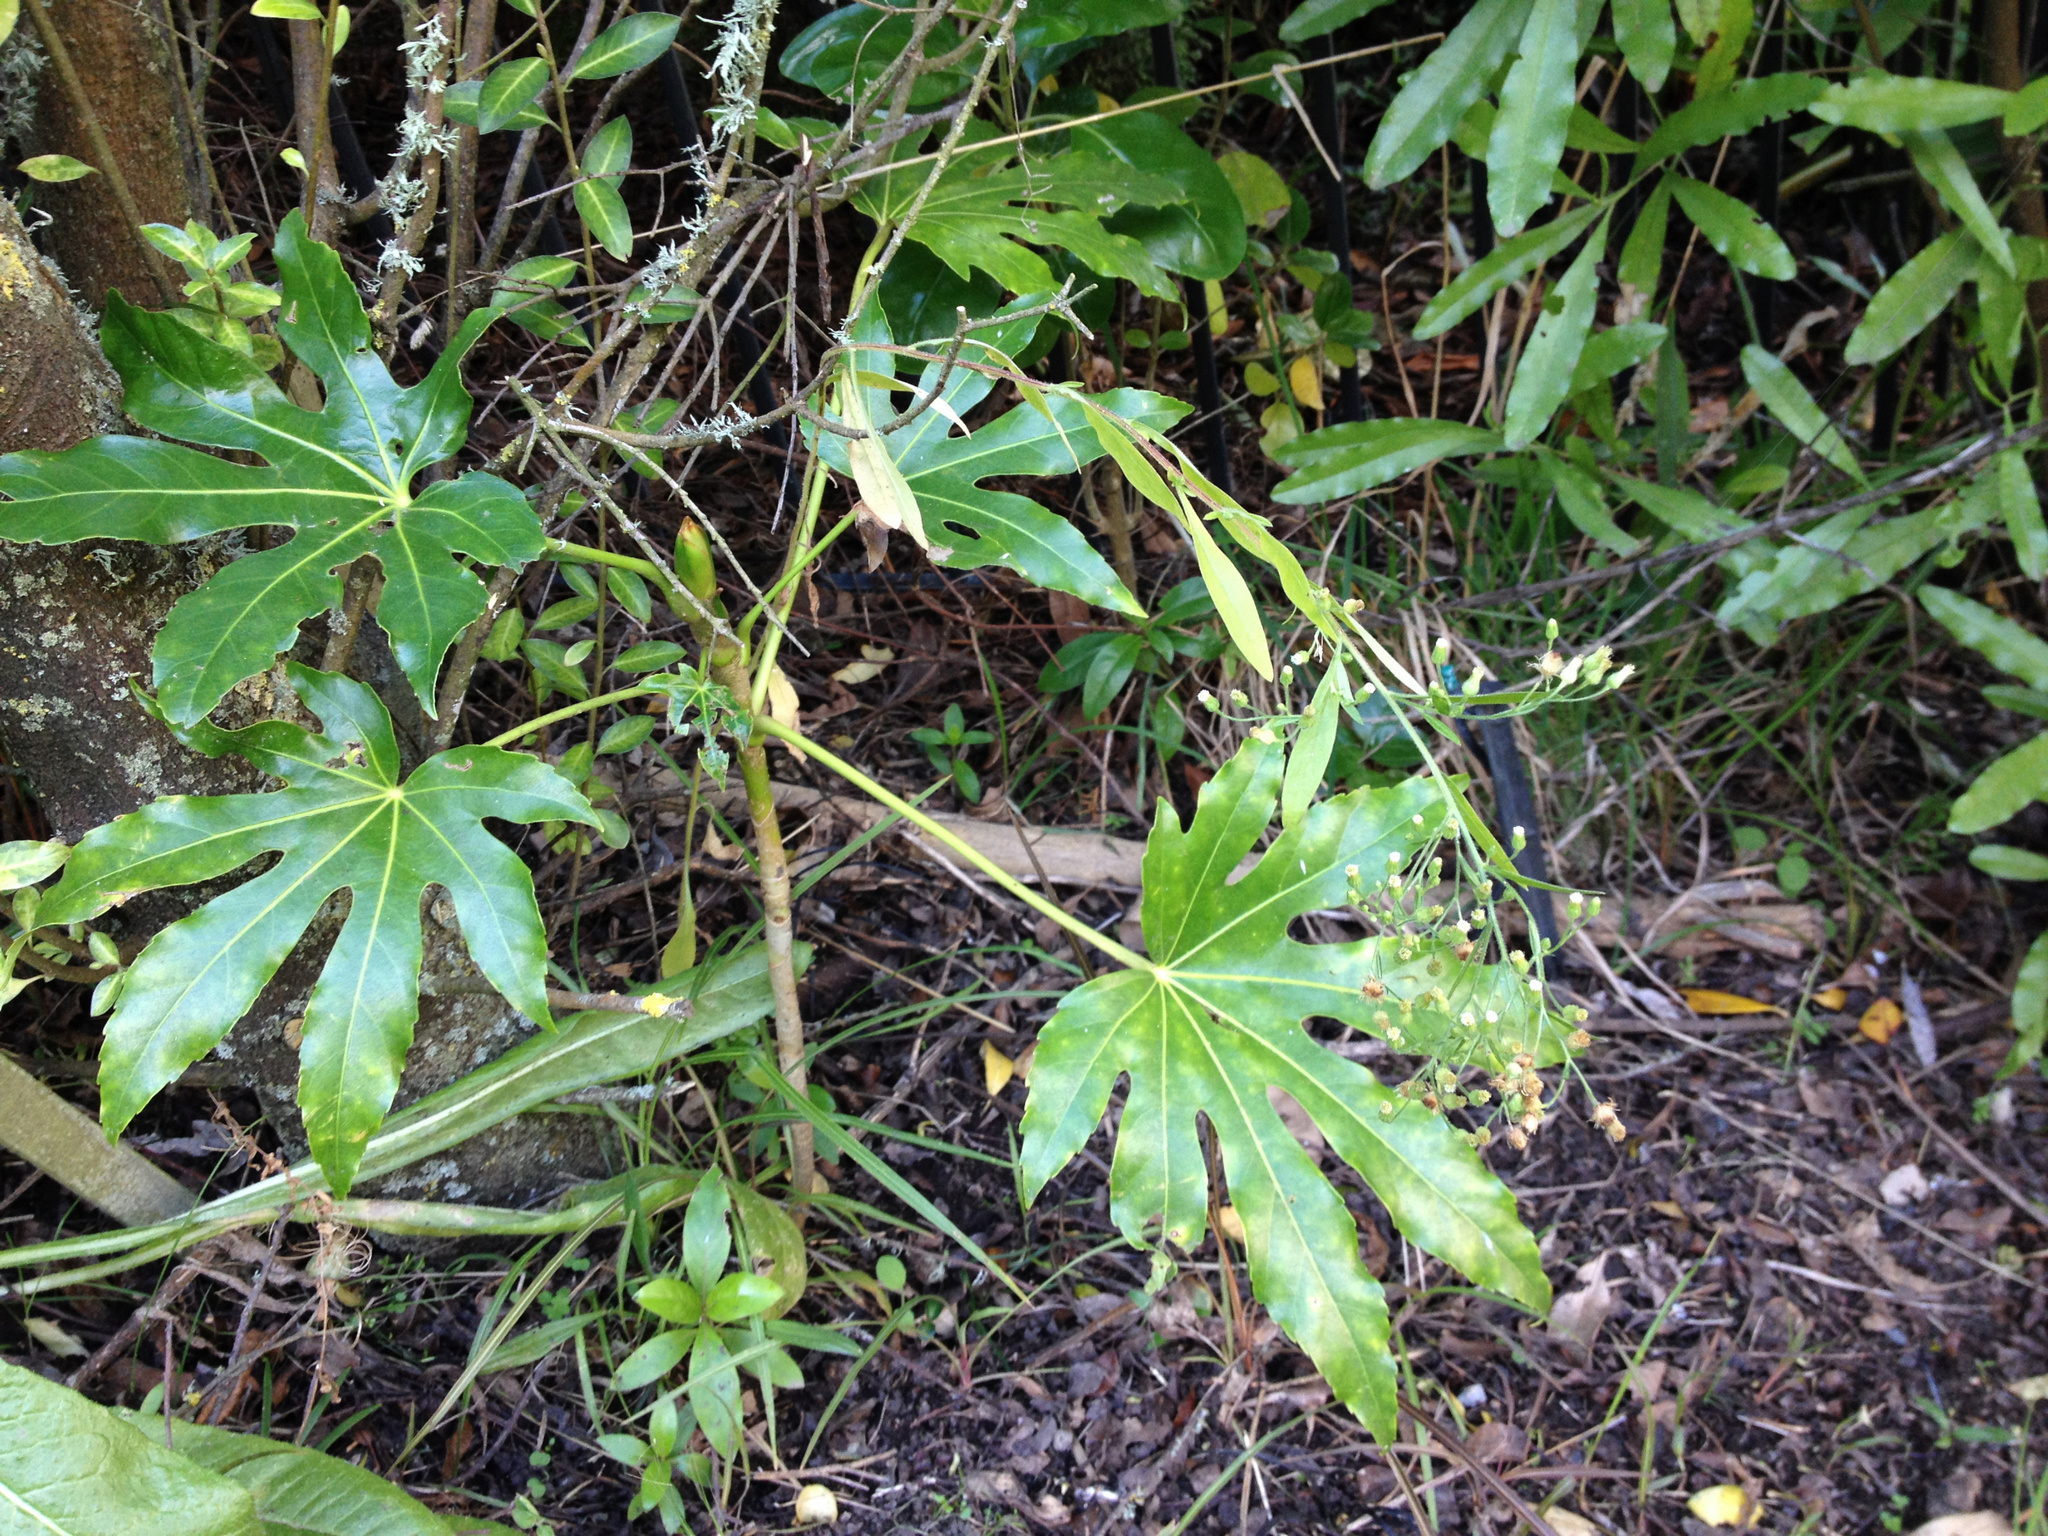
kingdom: Plantae
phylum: Tracheophyta
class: Magnoliopsida
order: Apiales
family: Araliaceae
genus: Fatsia
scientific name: Fatsia japonica
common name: Fatsia
